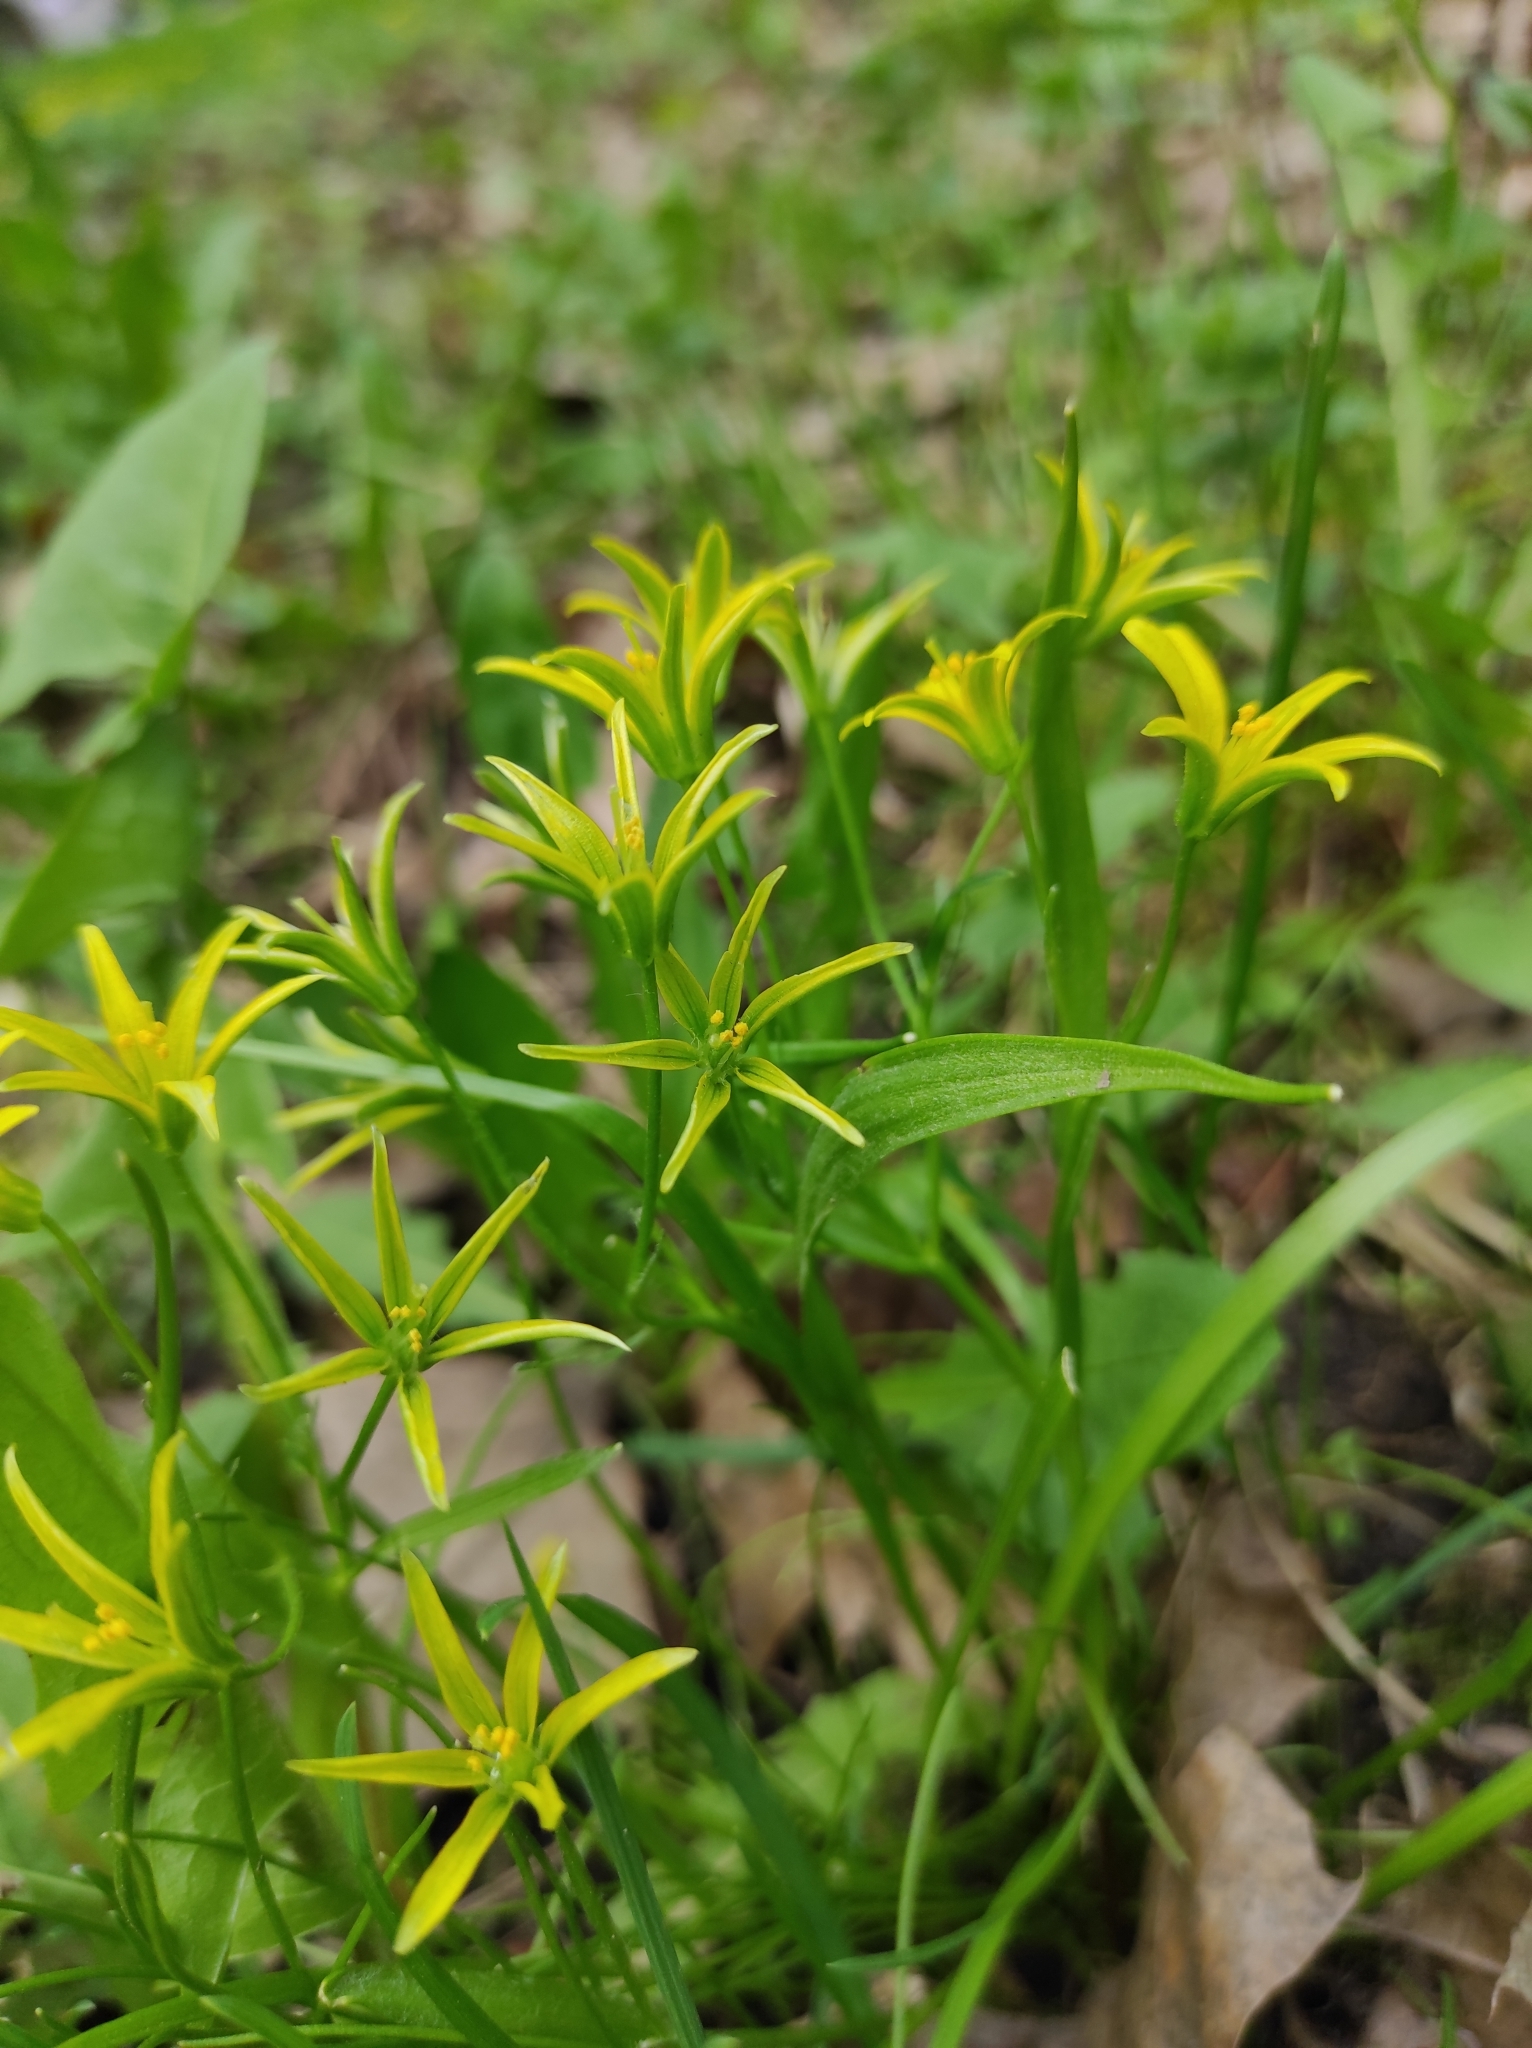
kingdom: Plantae
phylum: Tracheophyta
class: Liliopsida
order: Liliales
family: Liliaceae
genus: Gagea
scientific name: Gagea minima
